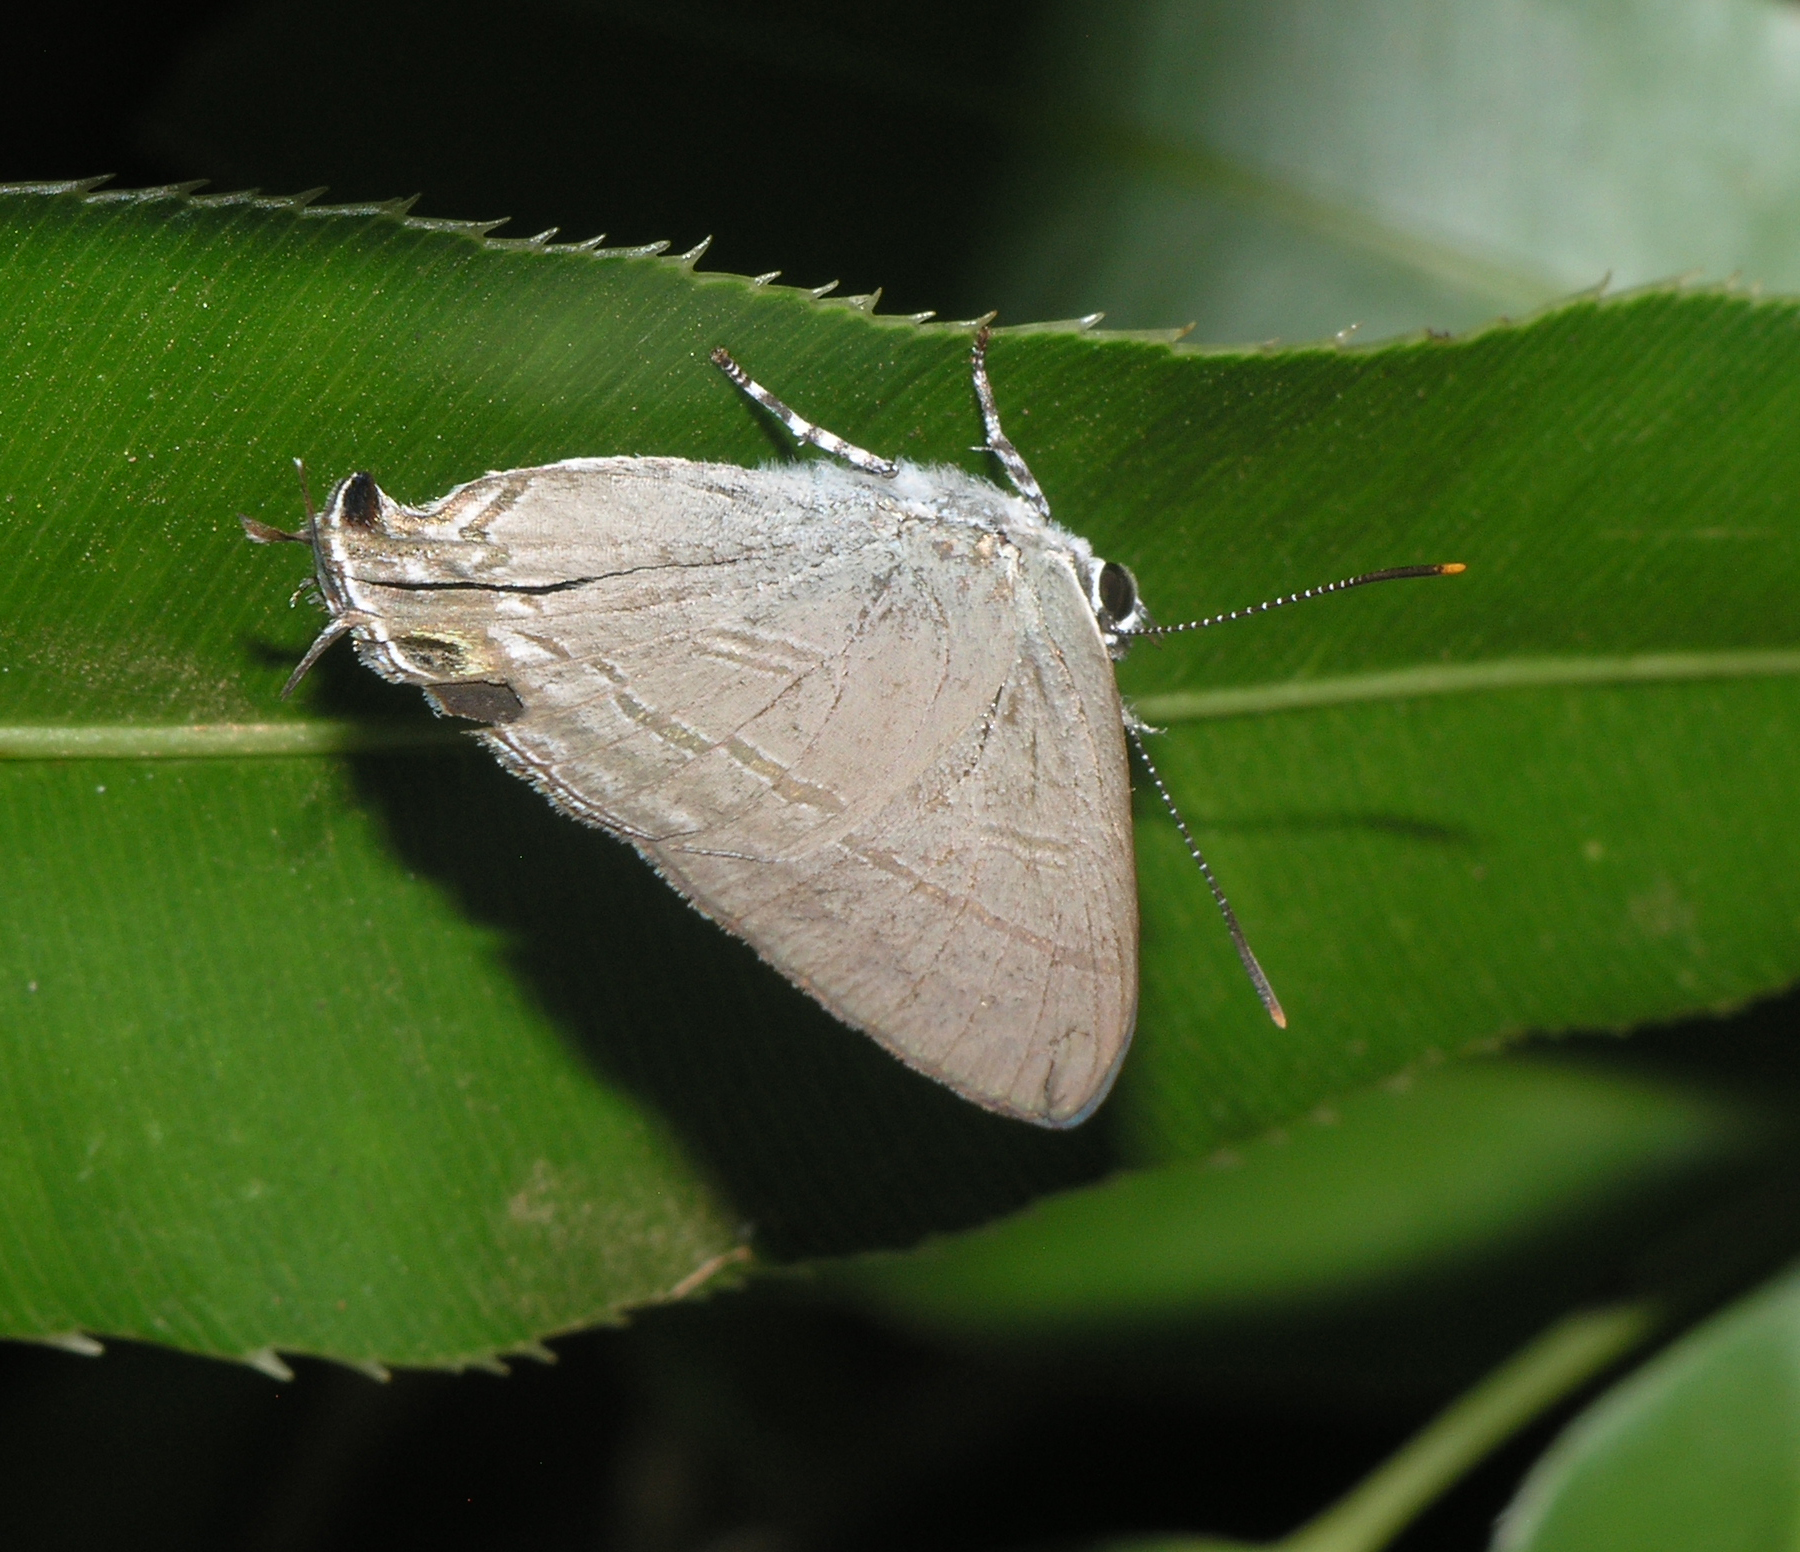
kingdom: Animalia
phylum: Arthropoda
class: Insecta
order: Lepidoptera
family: Lycaenidae
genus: Hypolycaena
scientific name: Hypolycaena erylus
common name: Common tit
